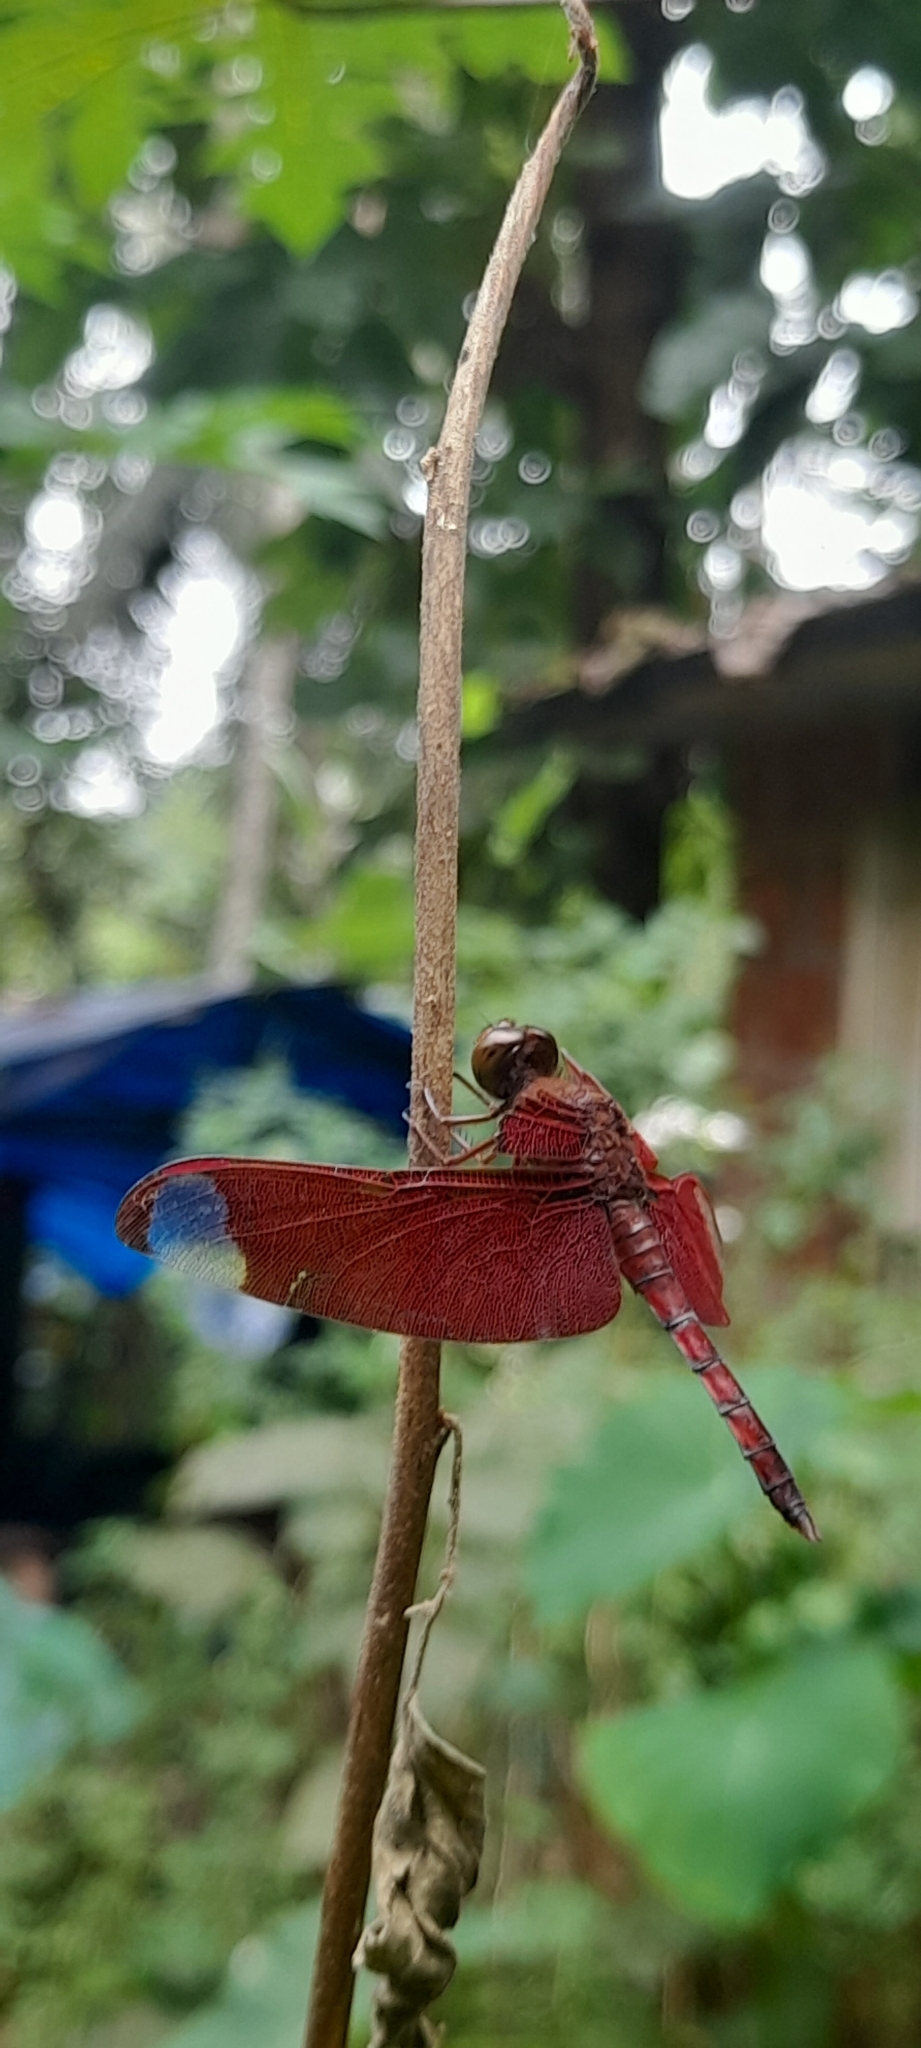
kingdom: Animalia
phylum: Arthropoda
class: Insecta
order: Odonata
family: Libellulidae
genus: Neurothemis
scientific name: Neurothemis fulvia
